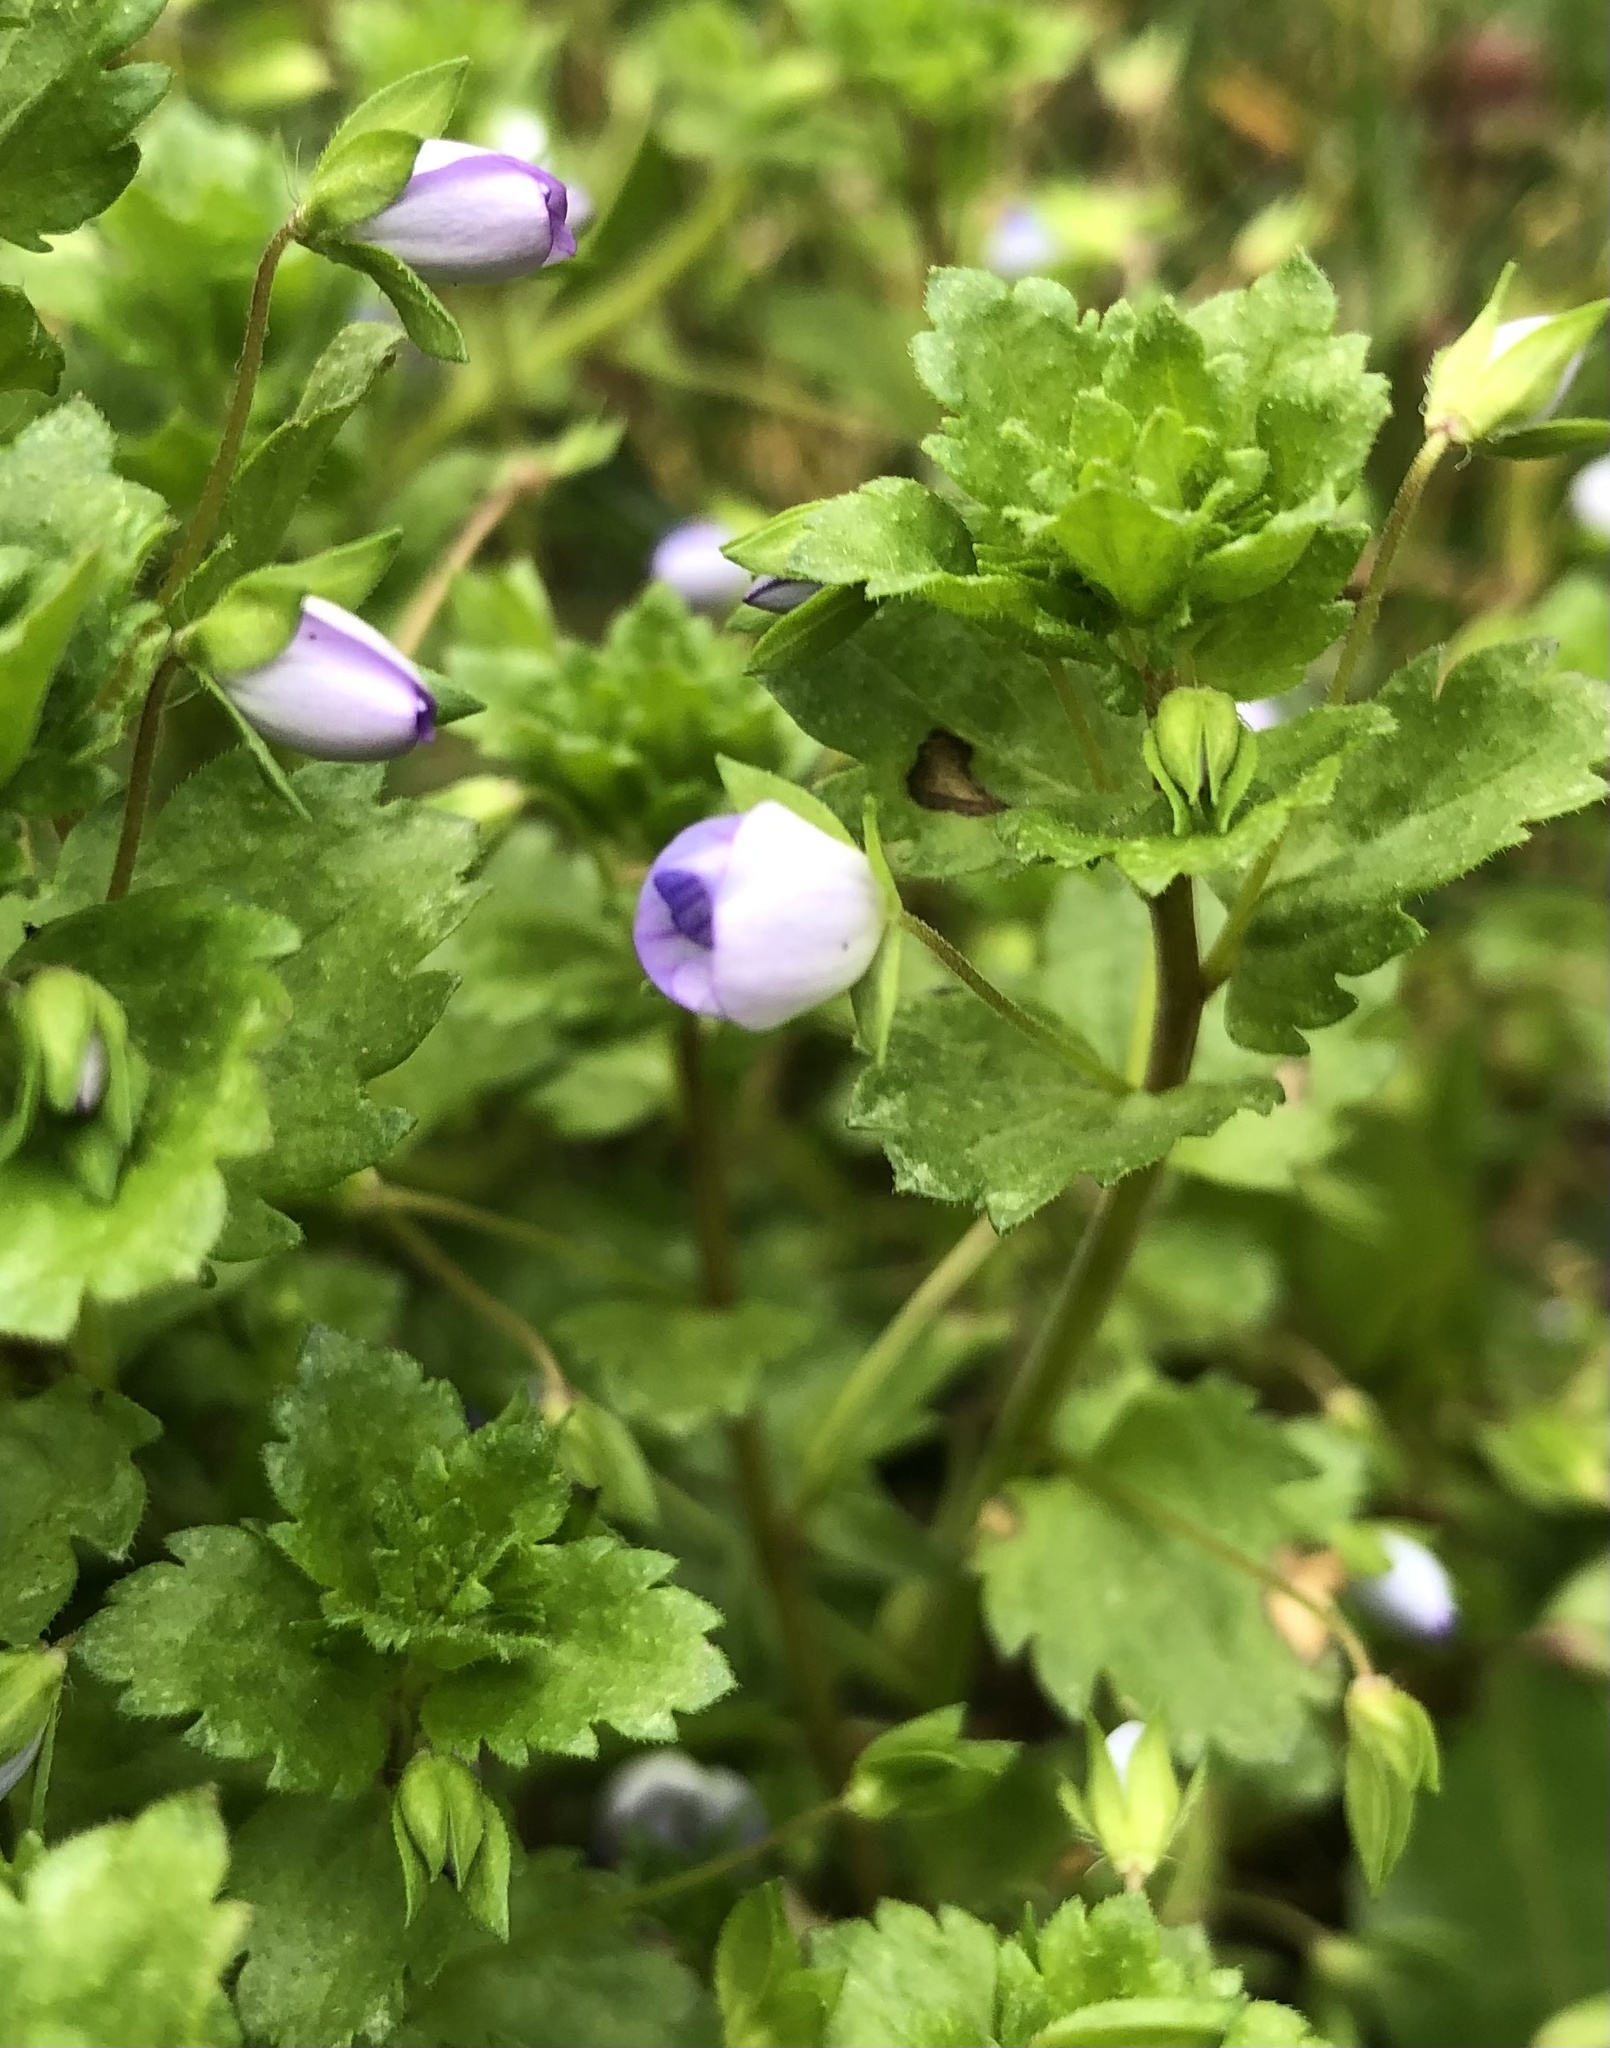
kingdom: Plantae
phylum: Tracheophyta
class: Magnoliopsida
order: Lamiales
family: Plantaginaceae
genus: Veronica
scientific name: Veronica persica
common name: Common field-speedwell
